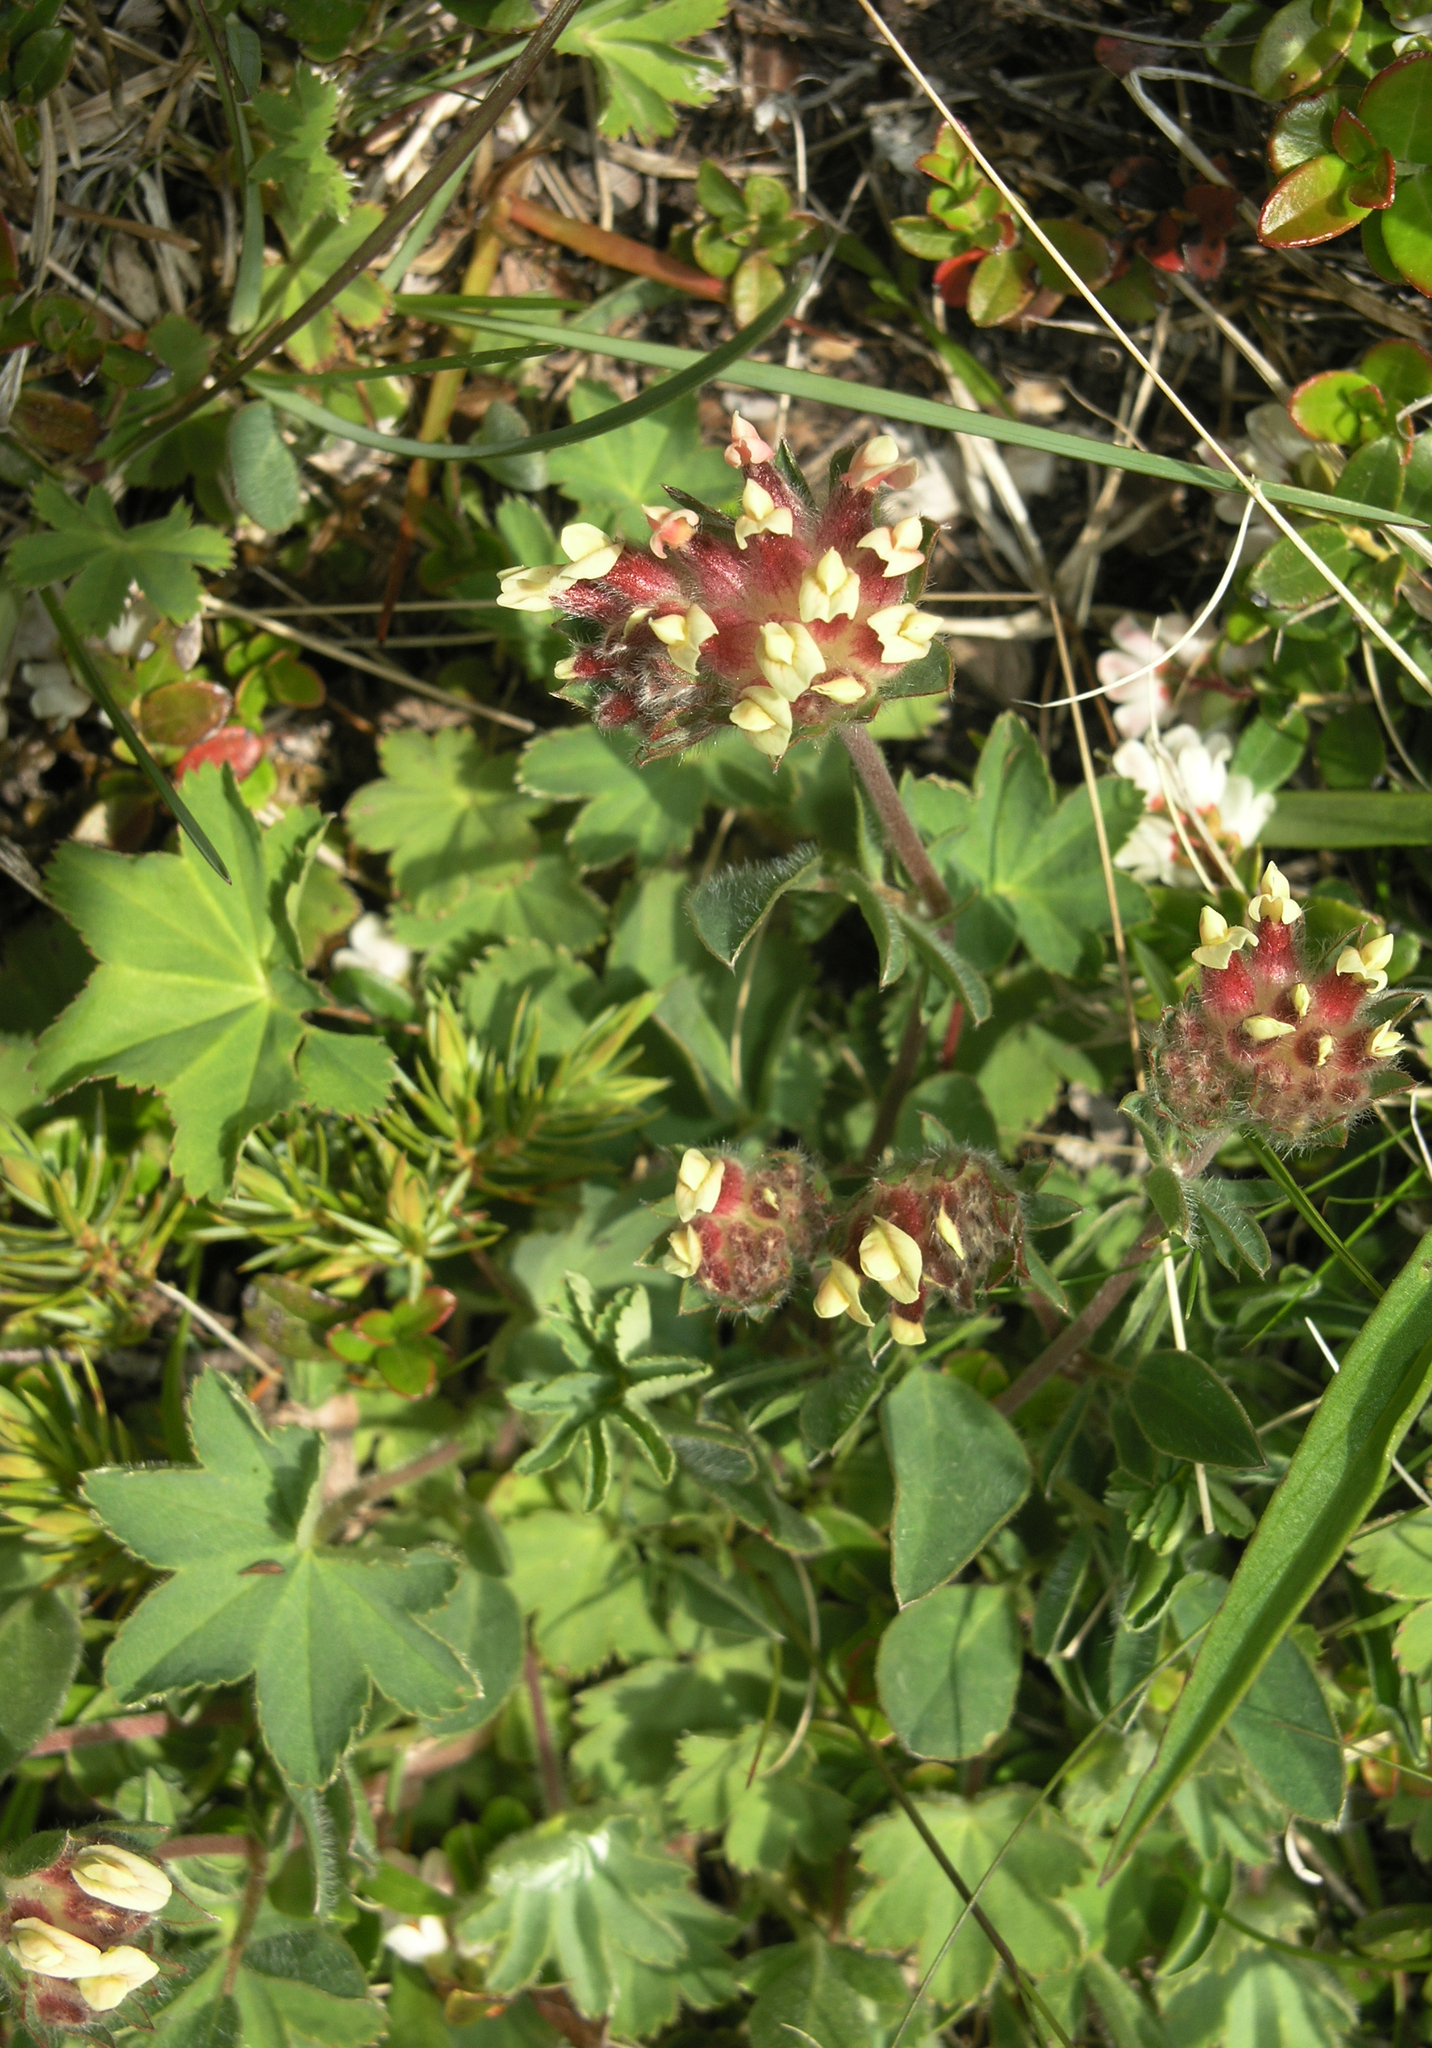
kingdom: Plantae
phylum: Tracheophyta
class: Magnoliopsida
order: Fabales
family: Fabaceae
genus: Anthyllis
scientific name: Anthyllis vulneraria
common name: Kidney vetch
